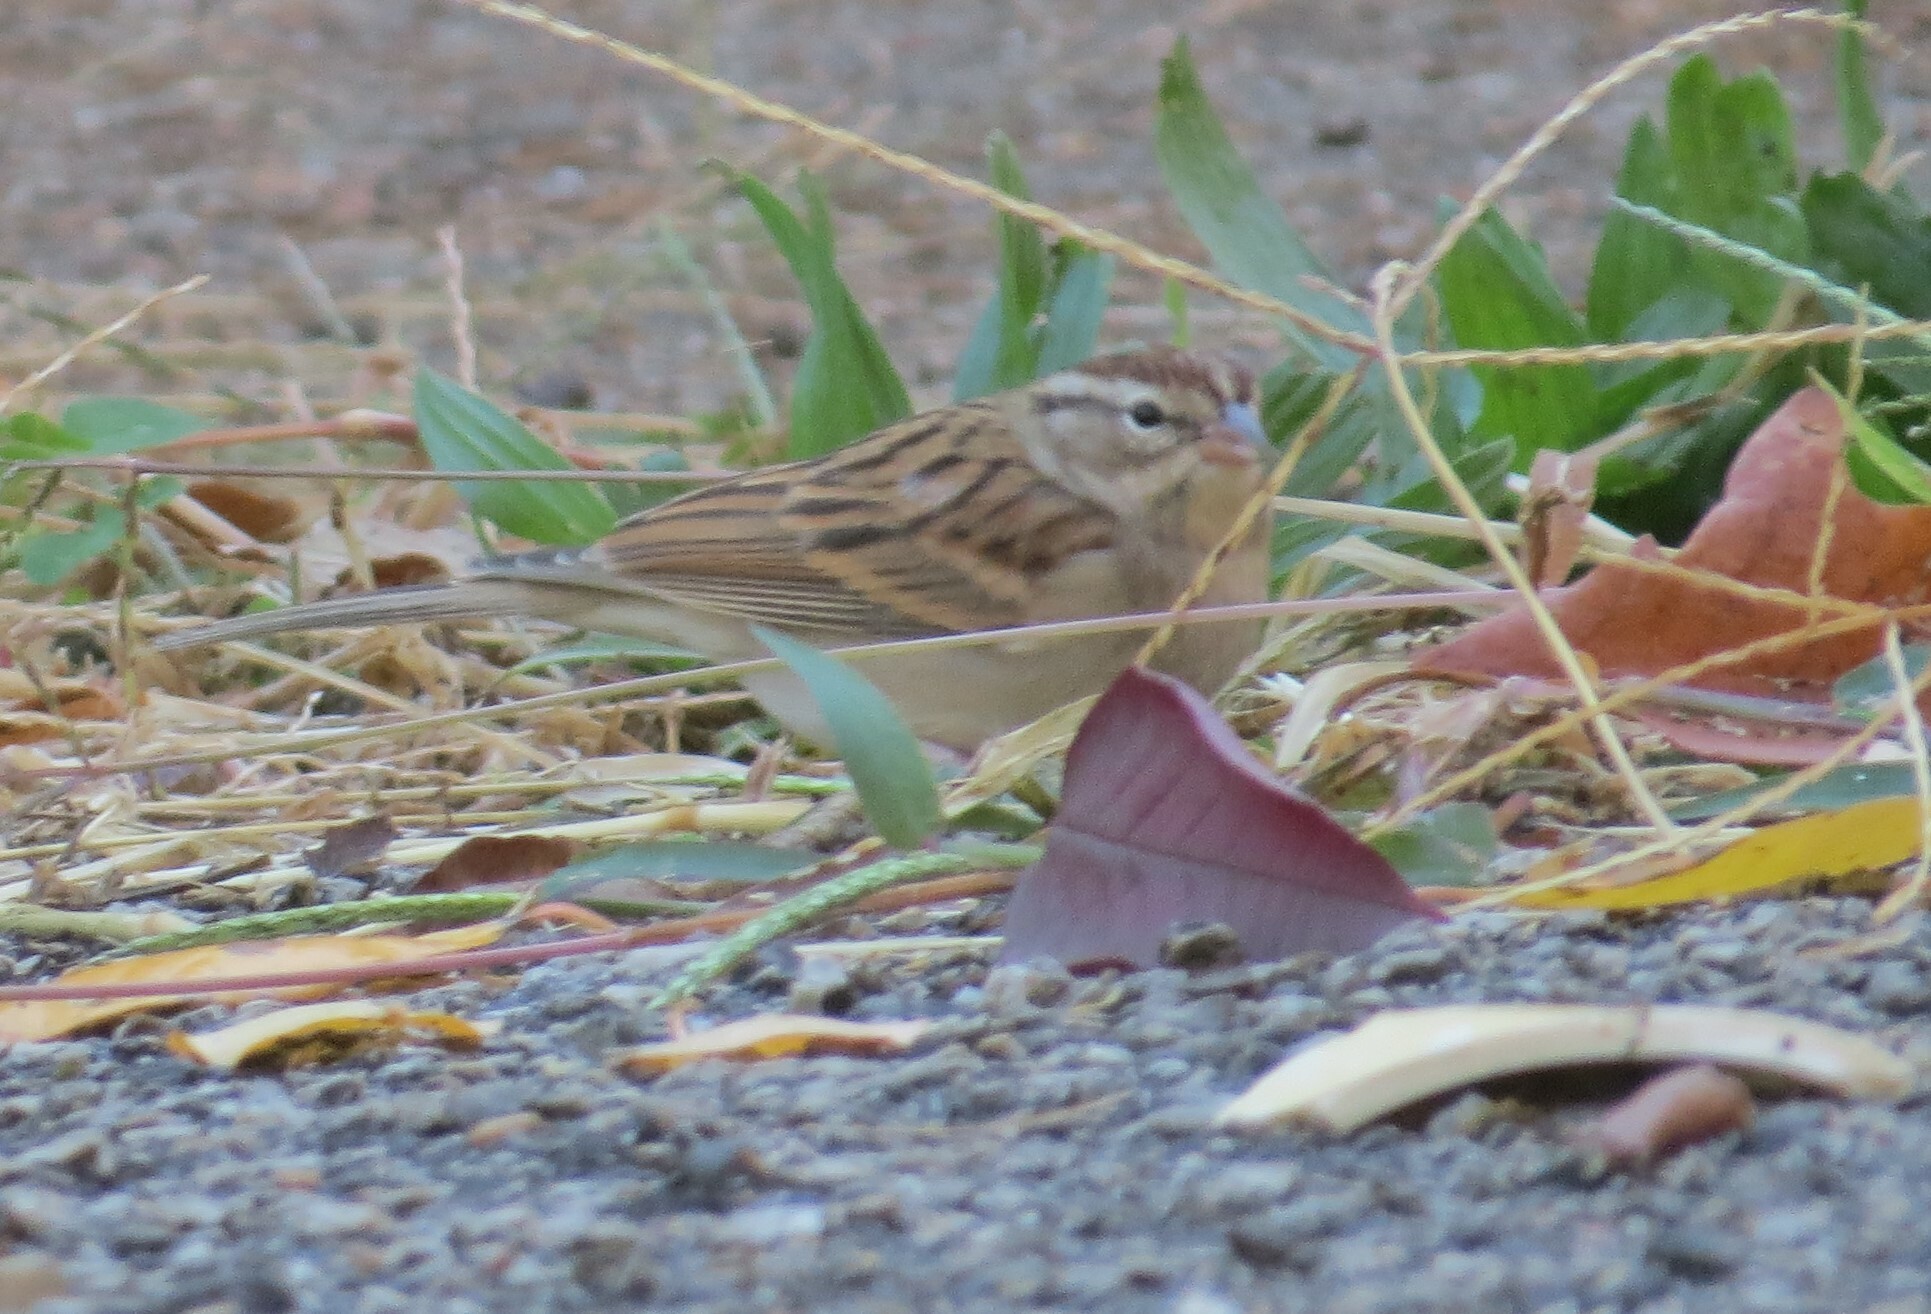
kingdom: Animalia
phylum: Chordata
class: Aves
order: Passeriformes
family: Passerellidae
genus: Spizella
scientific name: Spizella passerina
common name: Chipping sparrow
